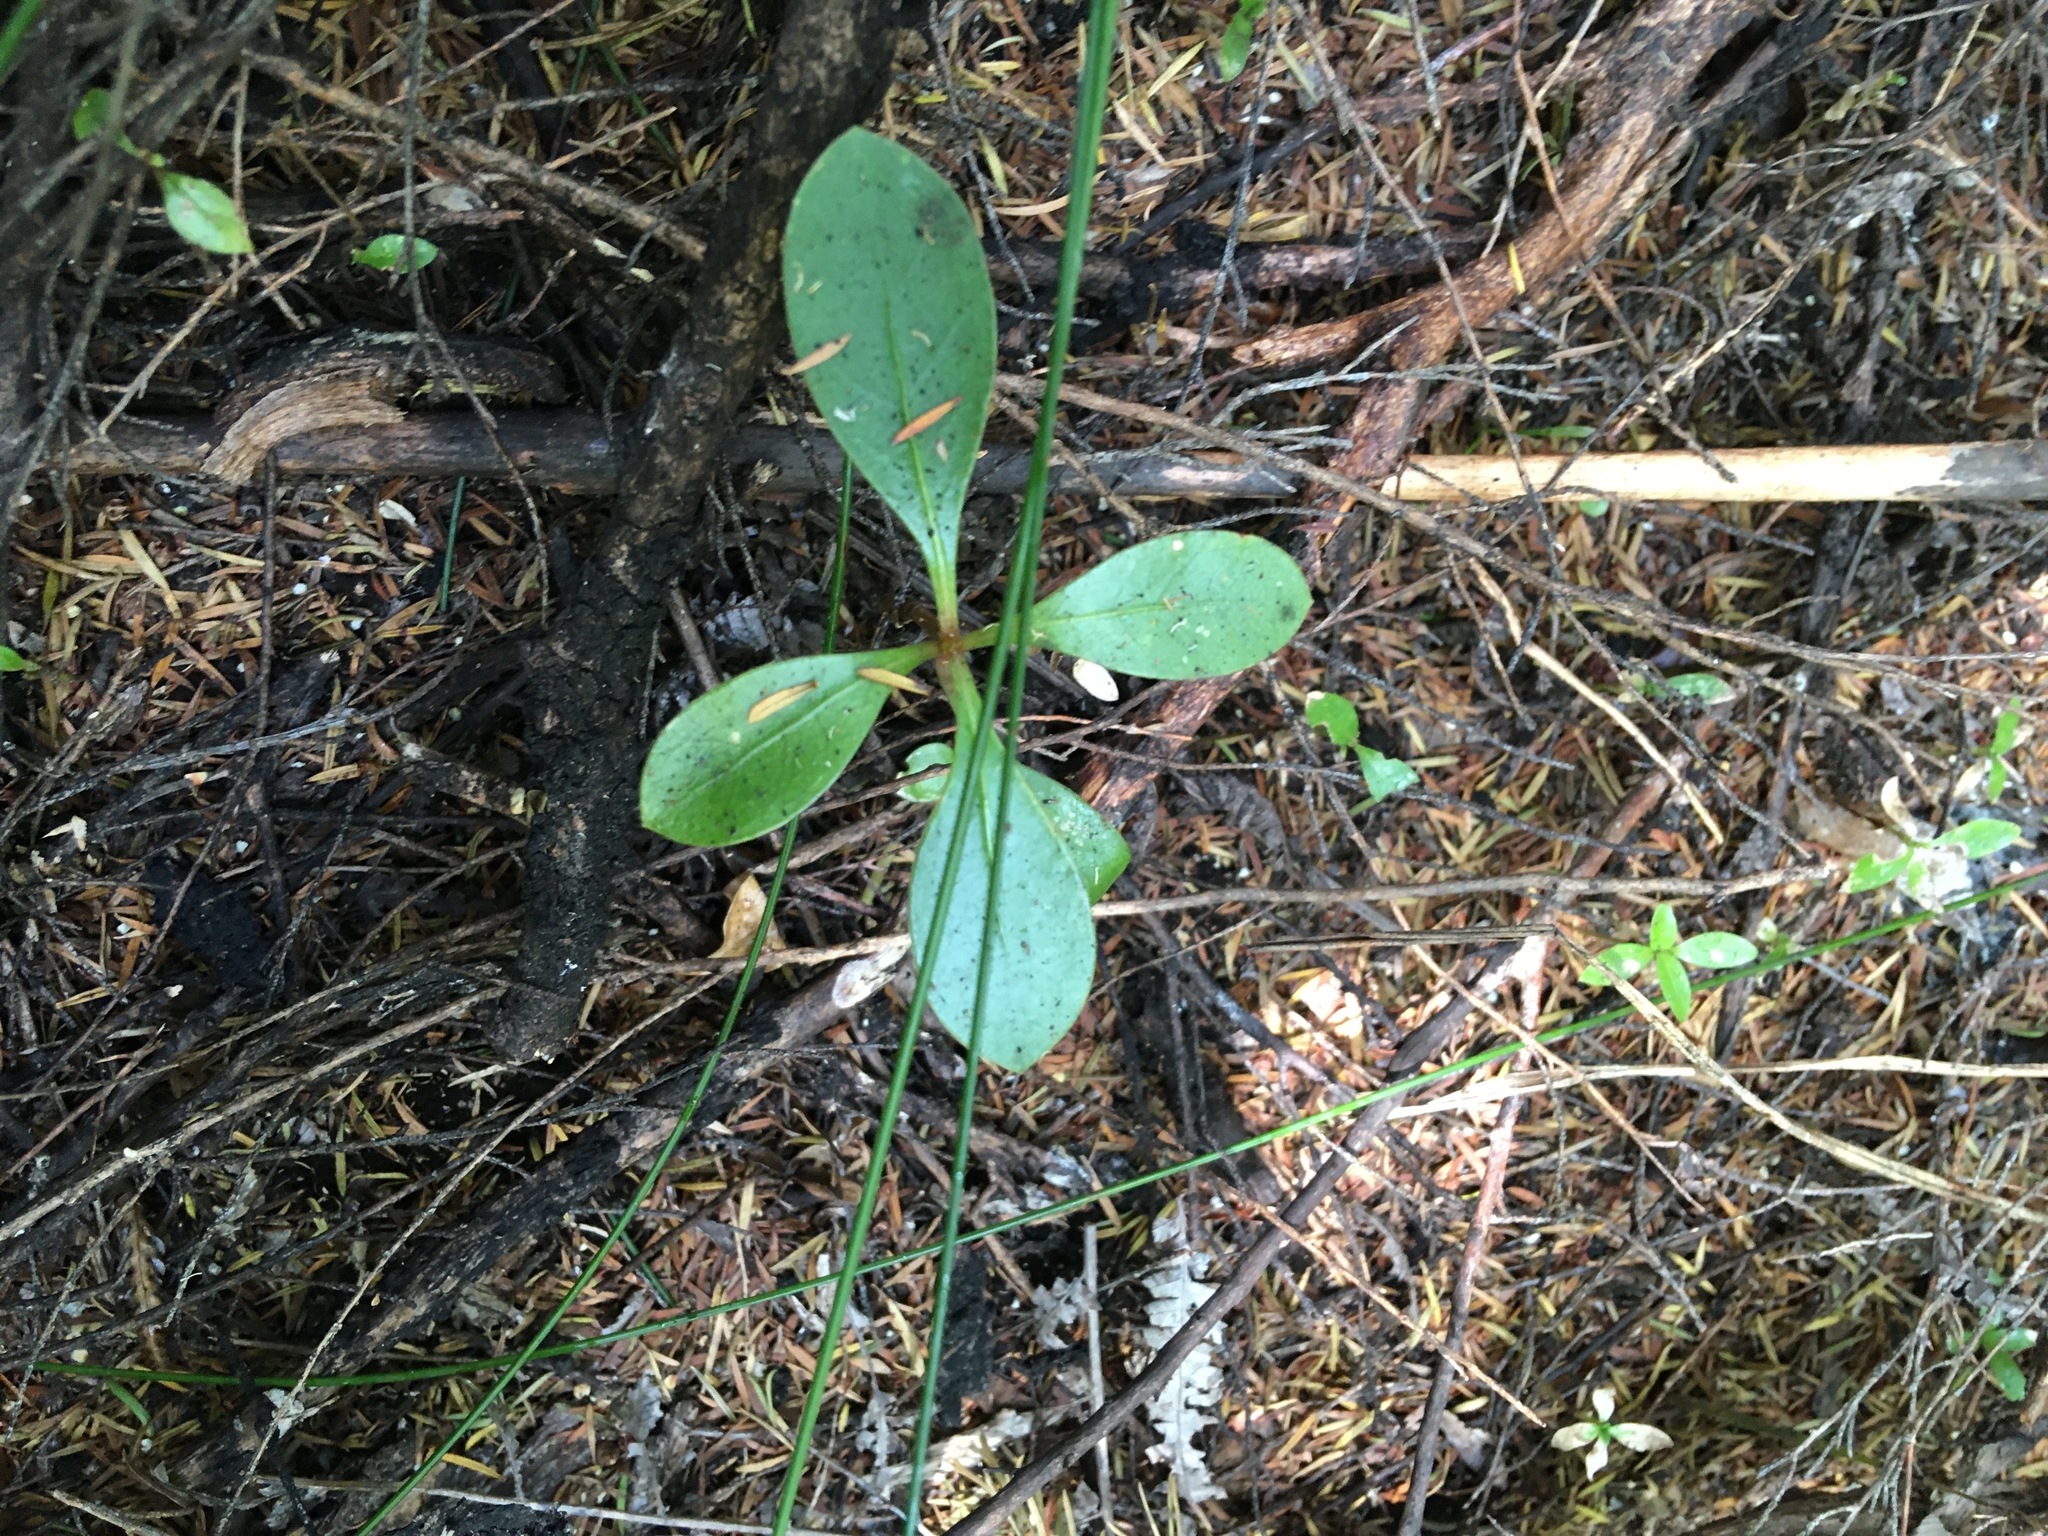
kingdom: Plantae
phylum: Tracheophyta
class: Magnoliopsida
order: Gentianales
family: Rubiaceae
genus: Coprosma
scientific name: Coprosma lucida
